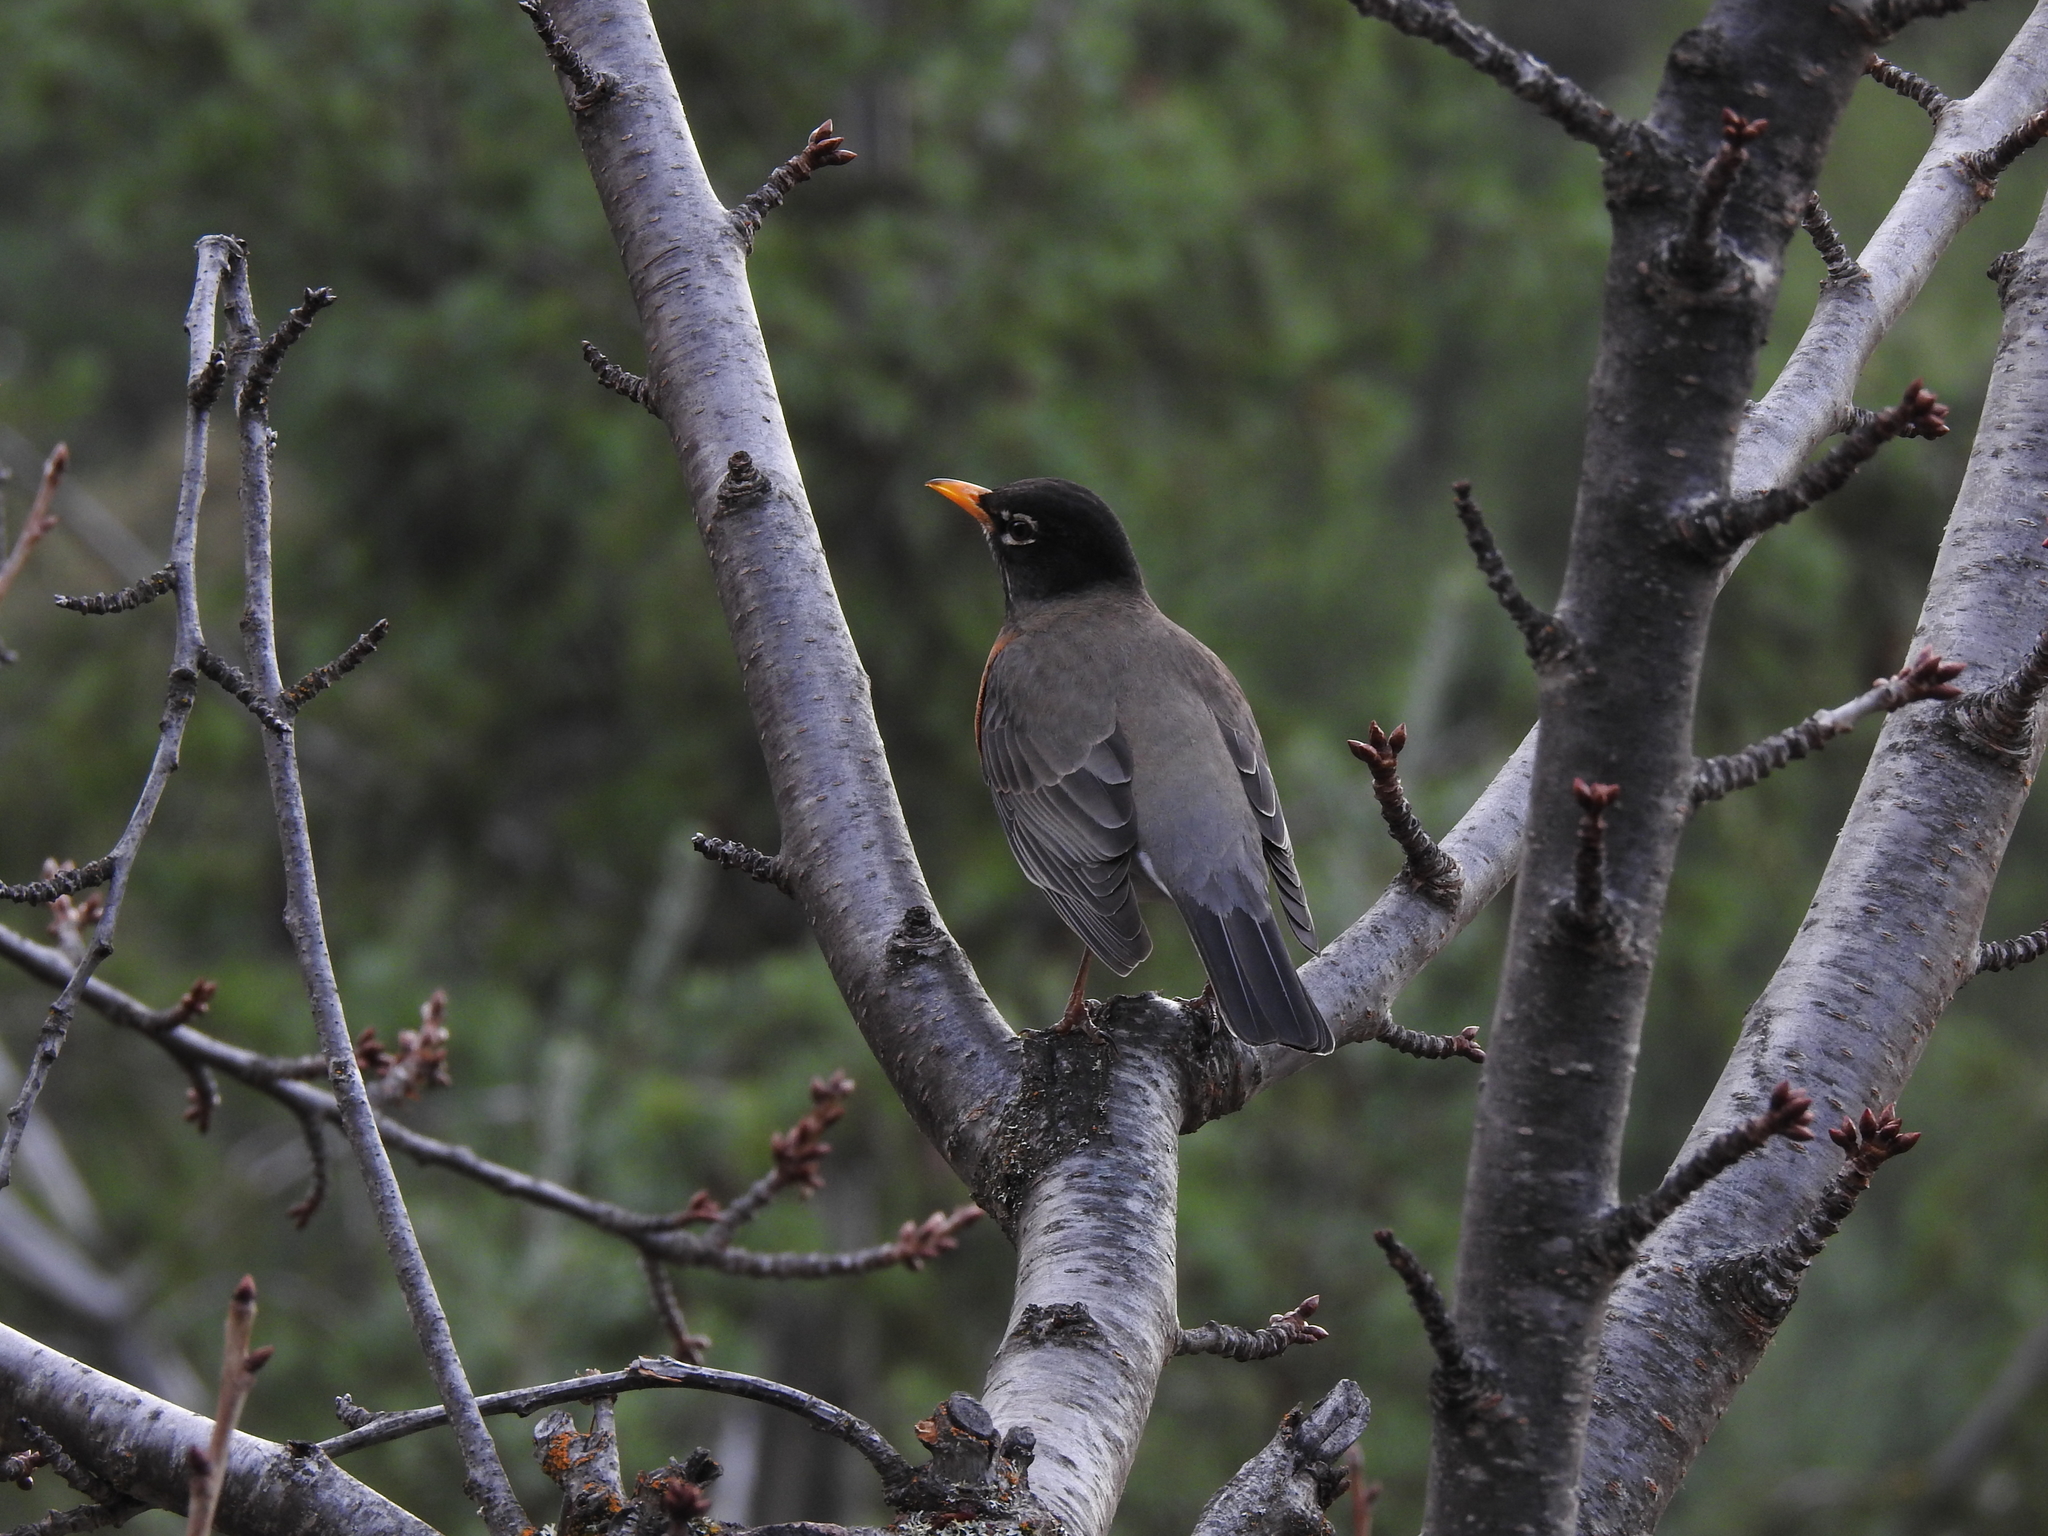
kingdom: Animalia
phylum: Chordata
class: Aves
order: Passeriformes
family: Turdidae
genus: Turdus
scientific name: Turdus migratorius
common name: American robin
